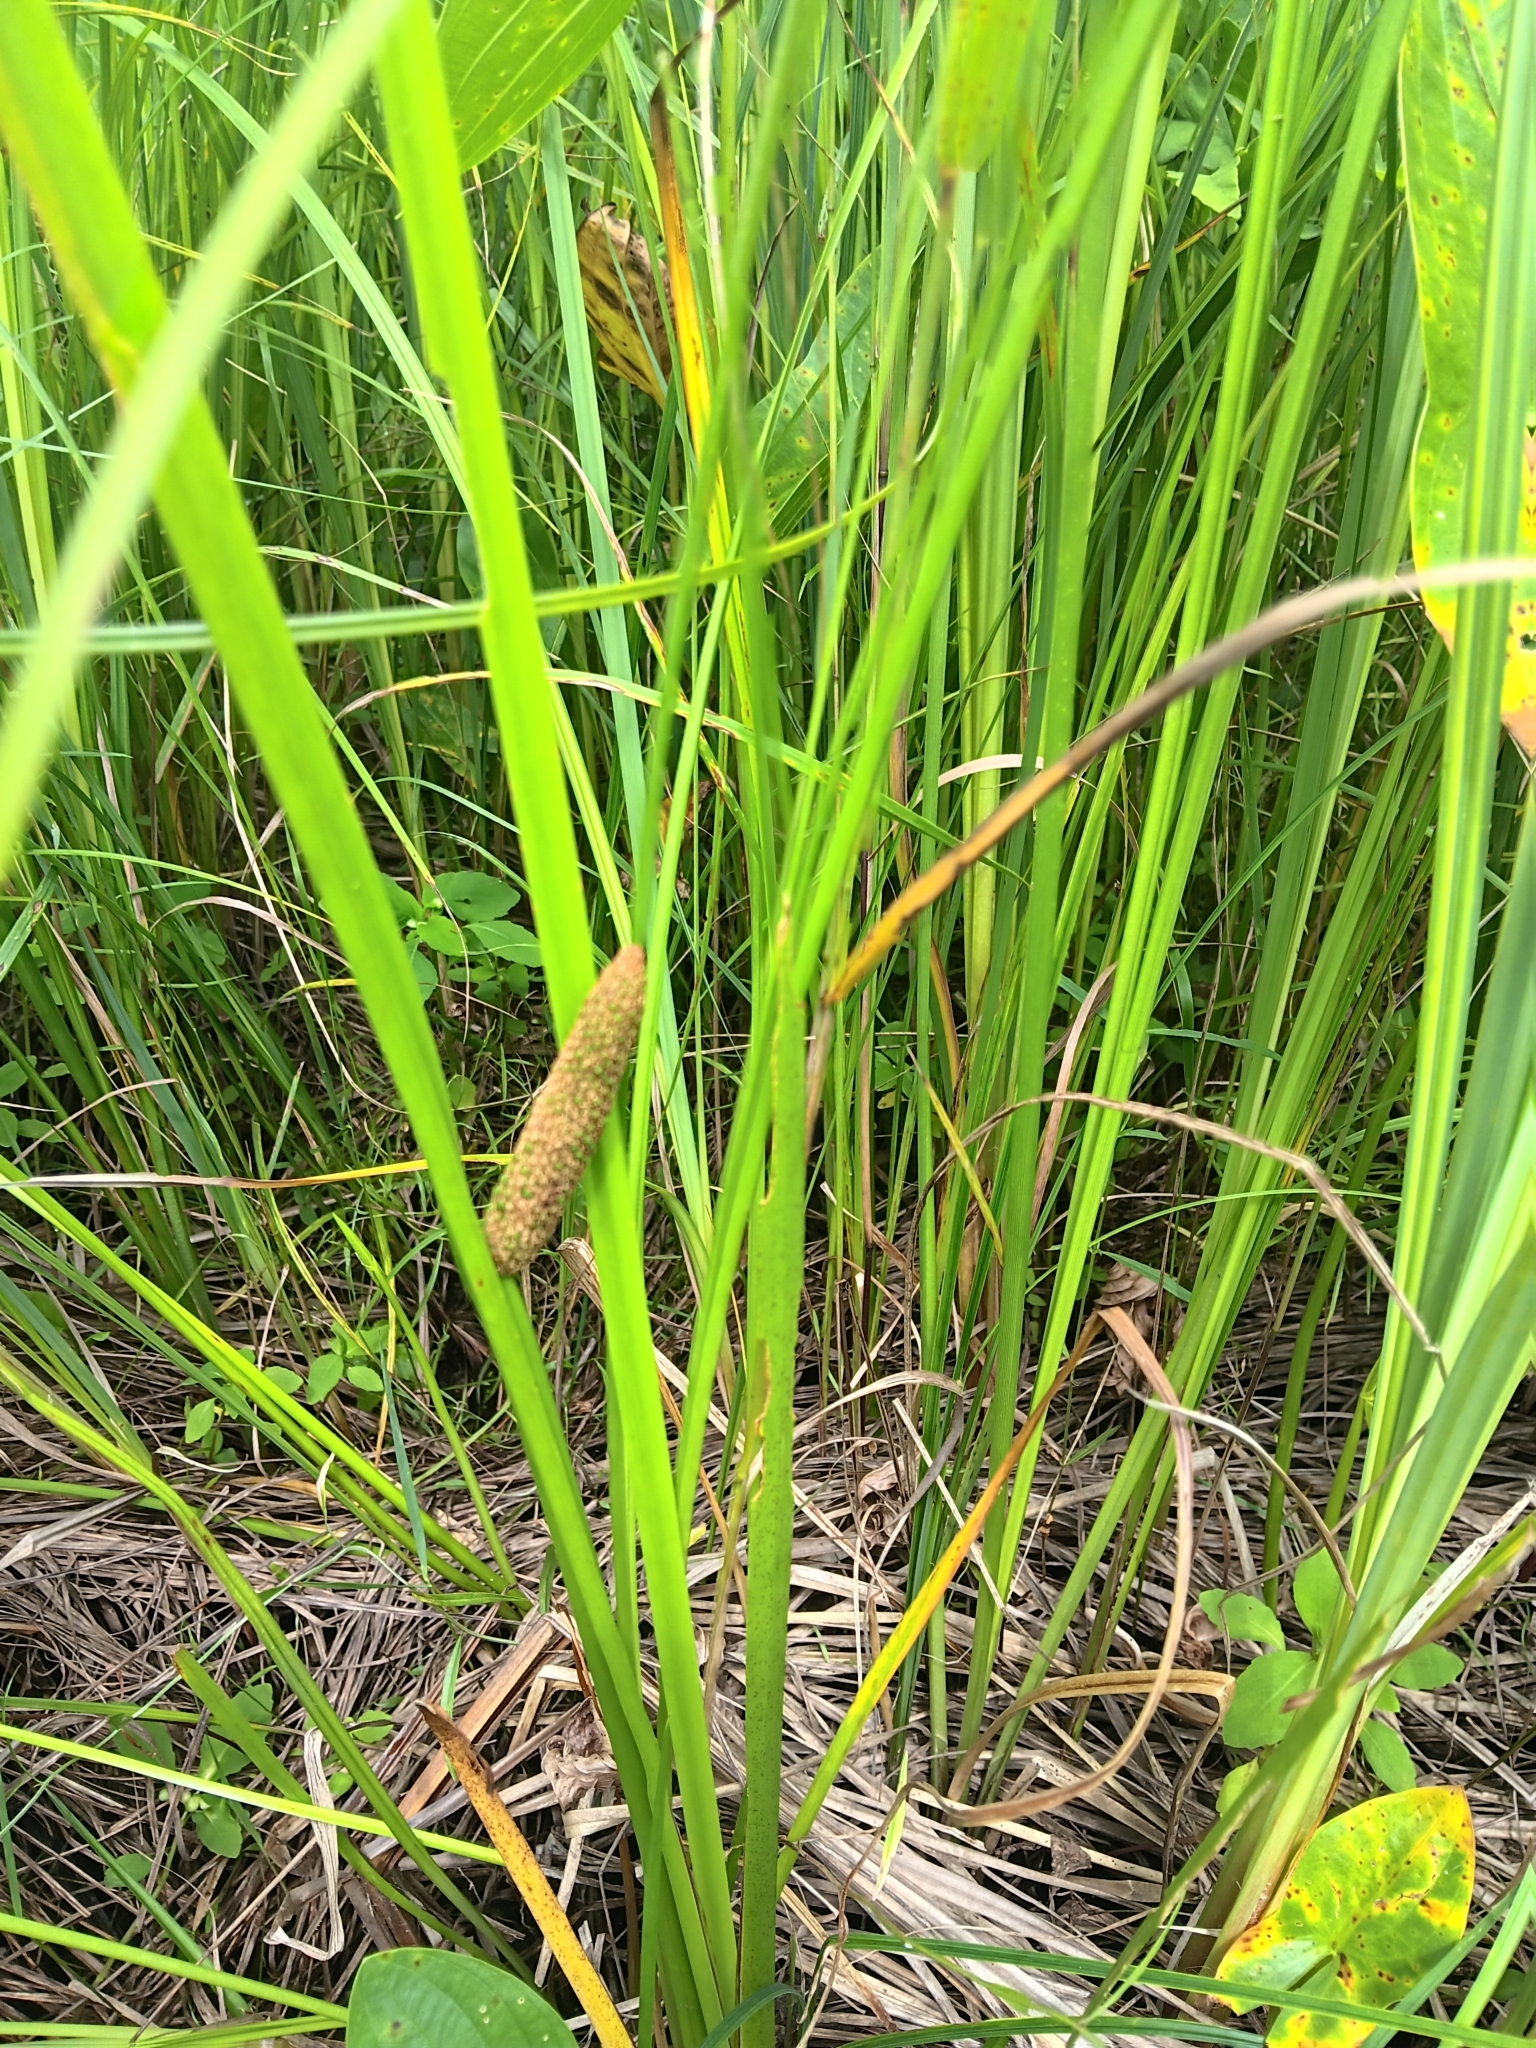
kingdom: Plantae
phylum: Tracheophyta
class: Liliopsida
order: Acorales
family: Acoraceae
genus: Acorus
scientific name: Acorus calamus
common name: Sweet-flag
